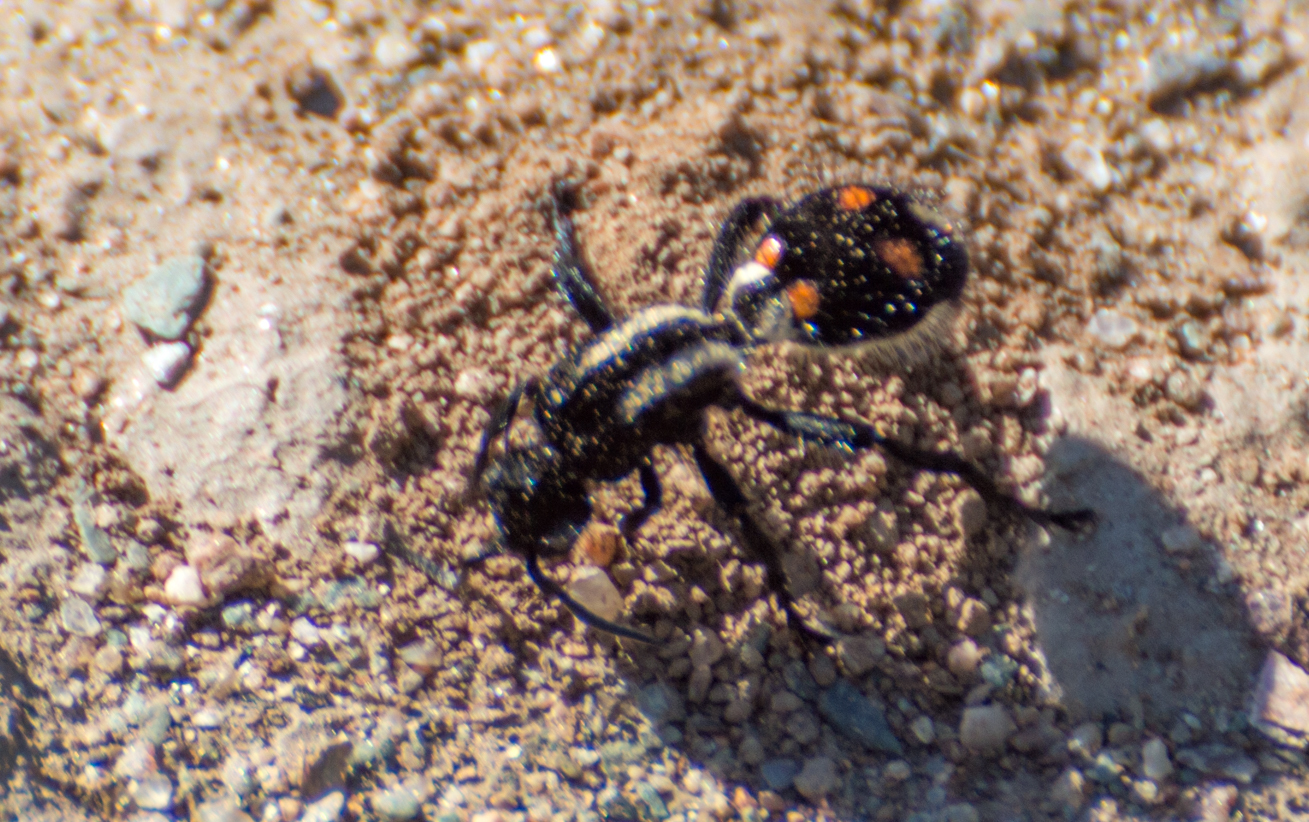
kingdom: Animalia
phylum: Arthropoda
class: Insecta
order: Hymenoptera
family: Mutillidae
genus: Traumatomutilla
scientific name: Traumatomutilla
